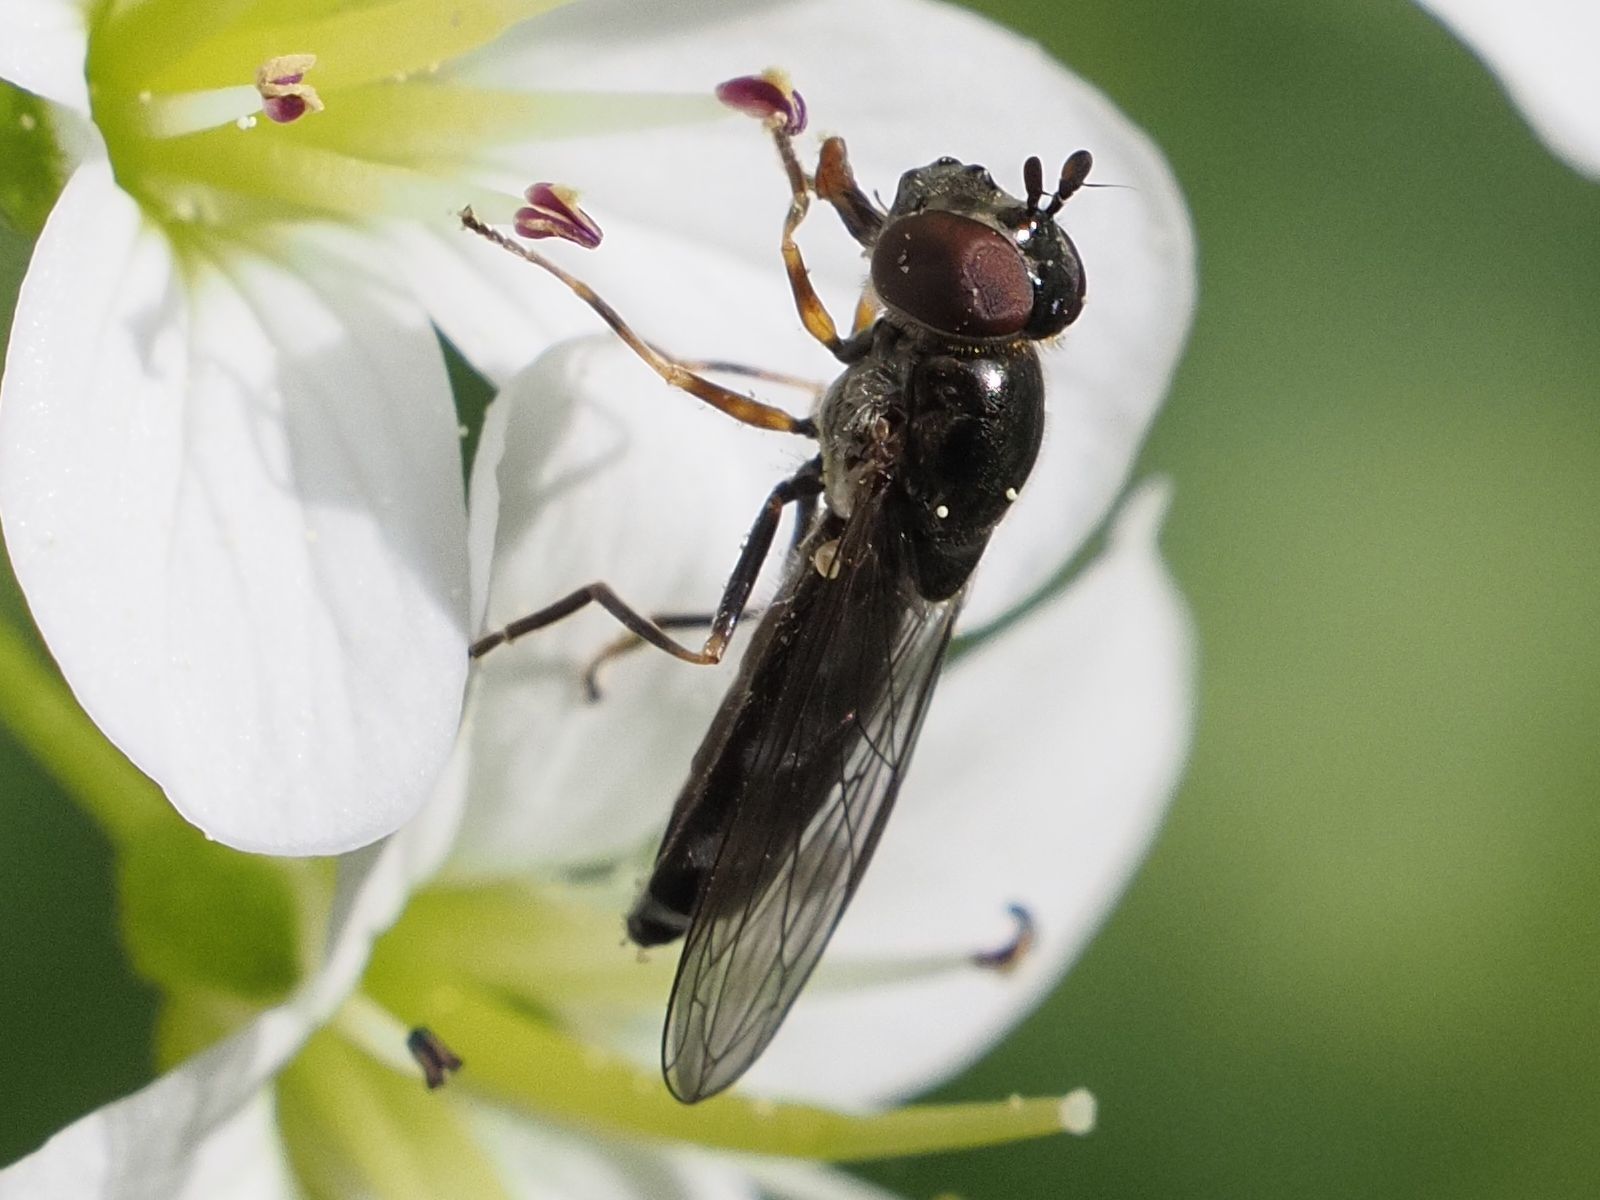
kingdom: Animalia
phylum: Arthropoda
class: Insecta
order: Diptera
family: Syrphidae
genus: Platycheirus
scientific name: Platycheirus albimanus
